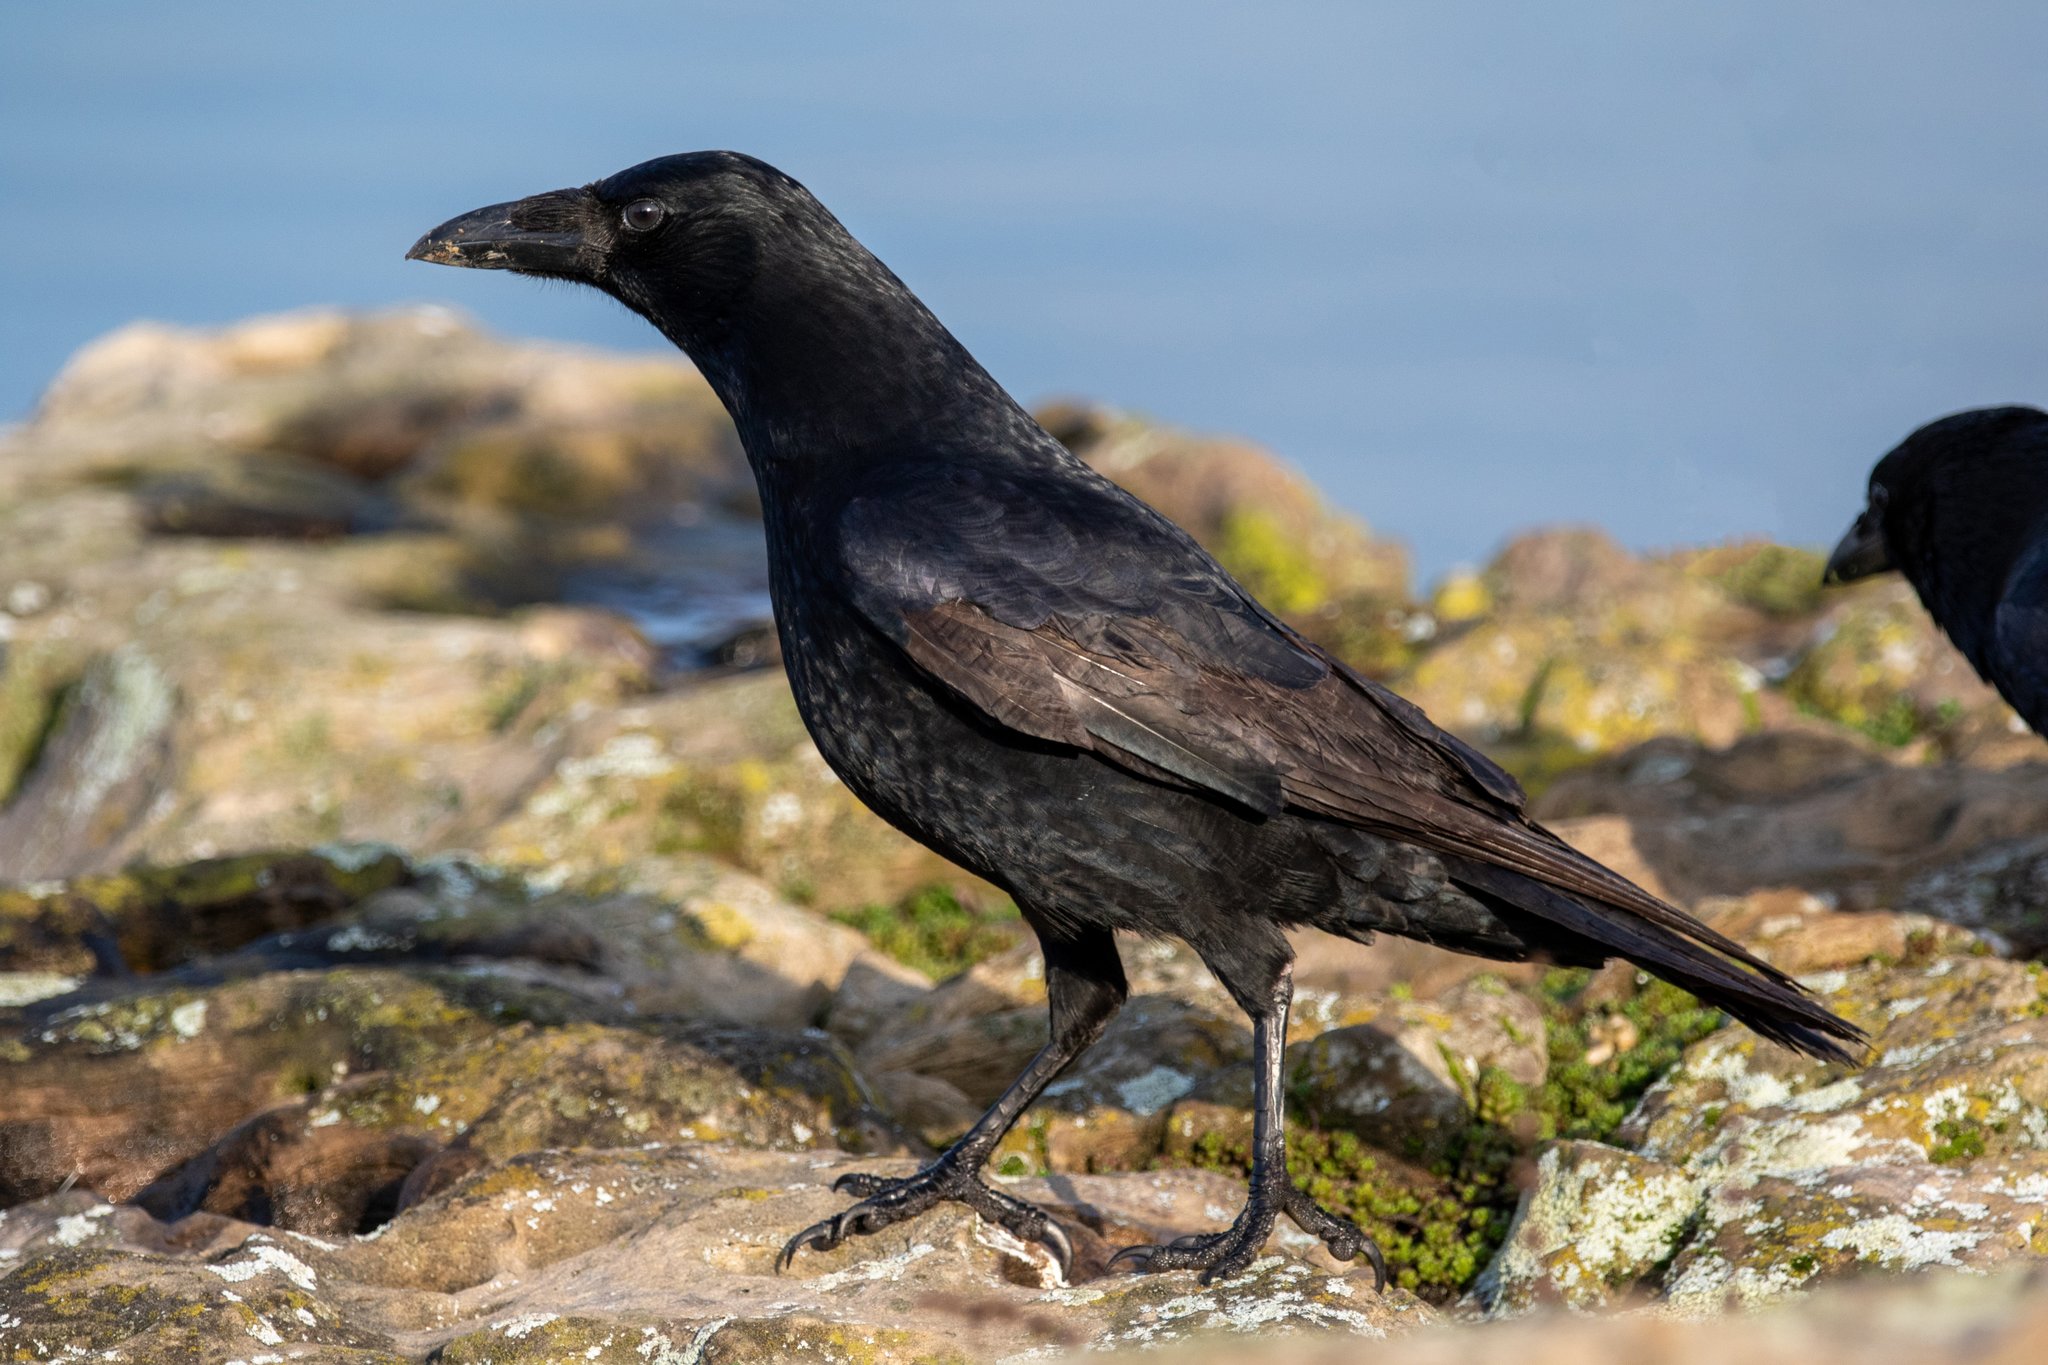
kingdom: Animalia
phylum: Chordata
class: Aves
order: Passeriformes
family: Corvidae
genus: Corvus
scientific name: Corvus corone
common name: Carrion crow
